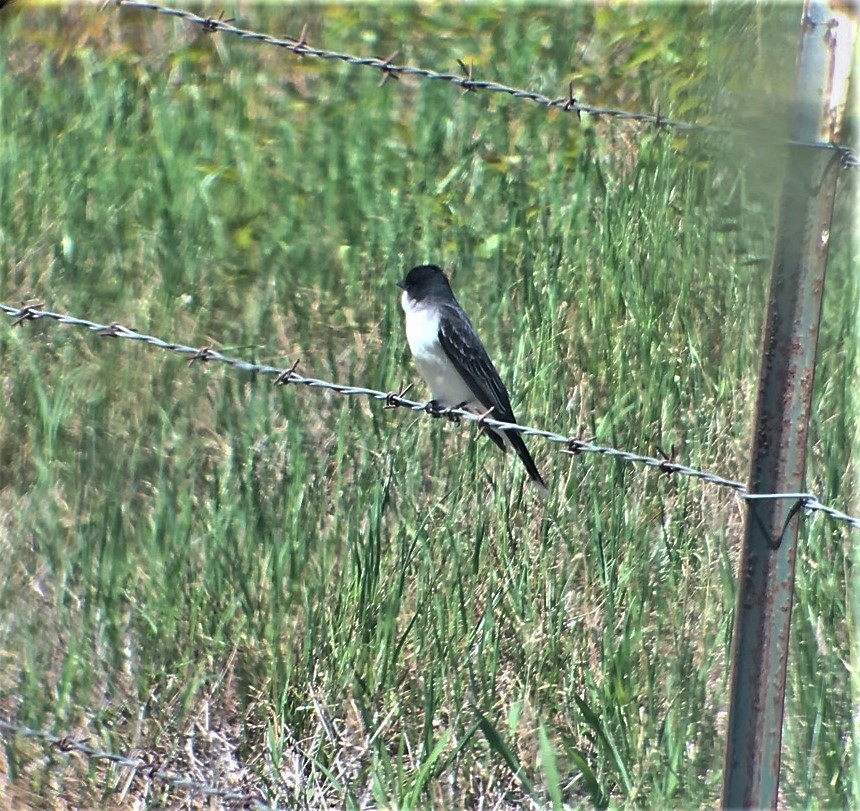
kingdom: Animalia
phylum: Chordata
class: Aves
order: Passeriformes
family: Tyrannidae
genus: Tyrannus
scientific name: Tyrannus tyrannus
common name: Eastern kingbird
